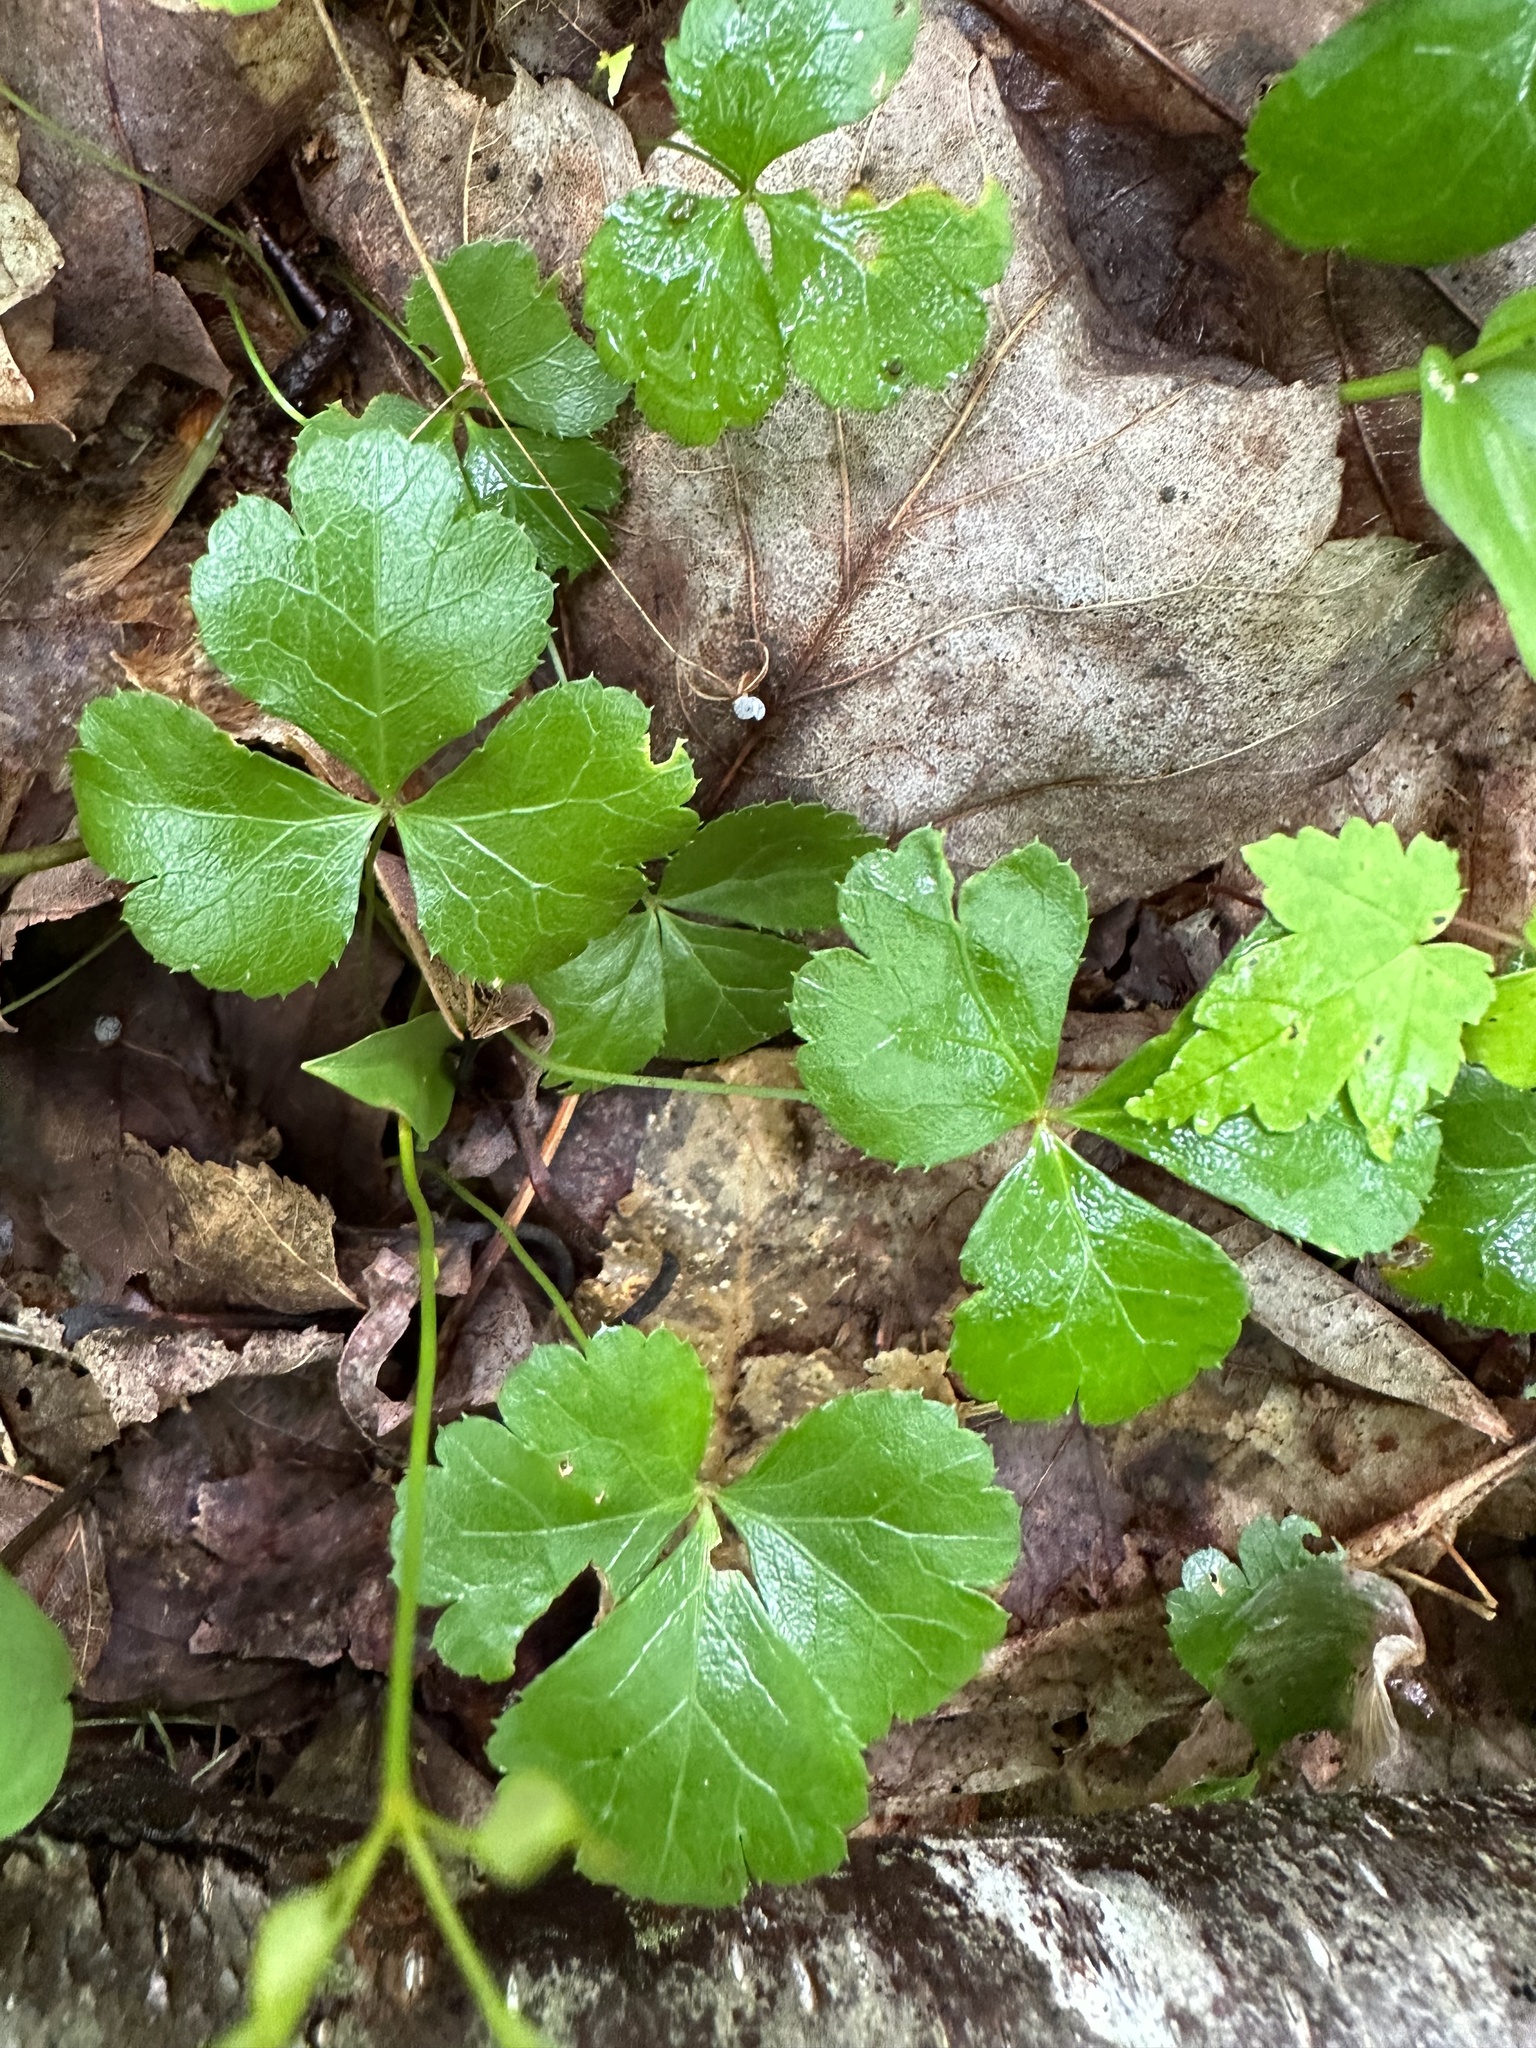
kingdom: Plantae
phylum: Tracheophyta
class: Magnoliopsida
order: Ranunculales
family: Ranunculaceae
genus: Coptis
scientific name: Coptis trifolia
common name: Canker-root
